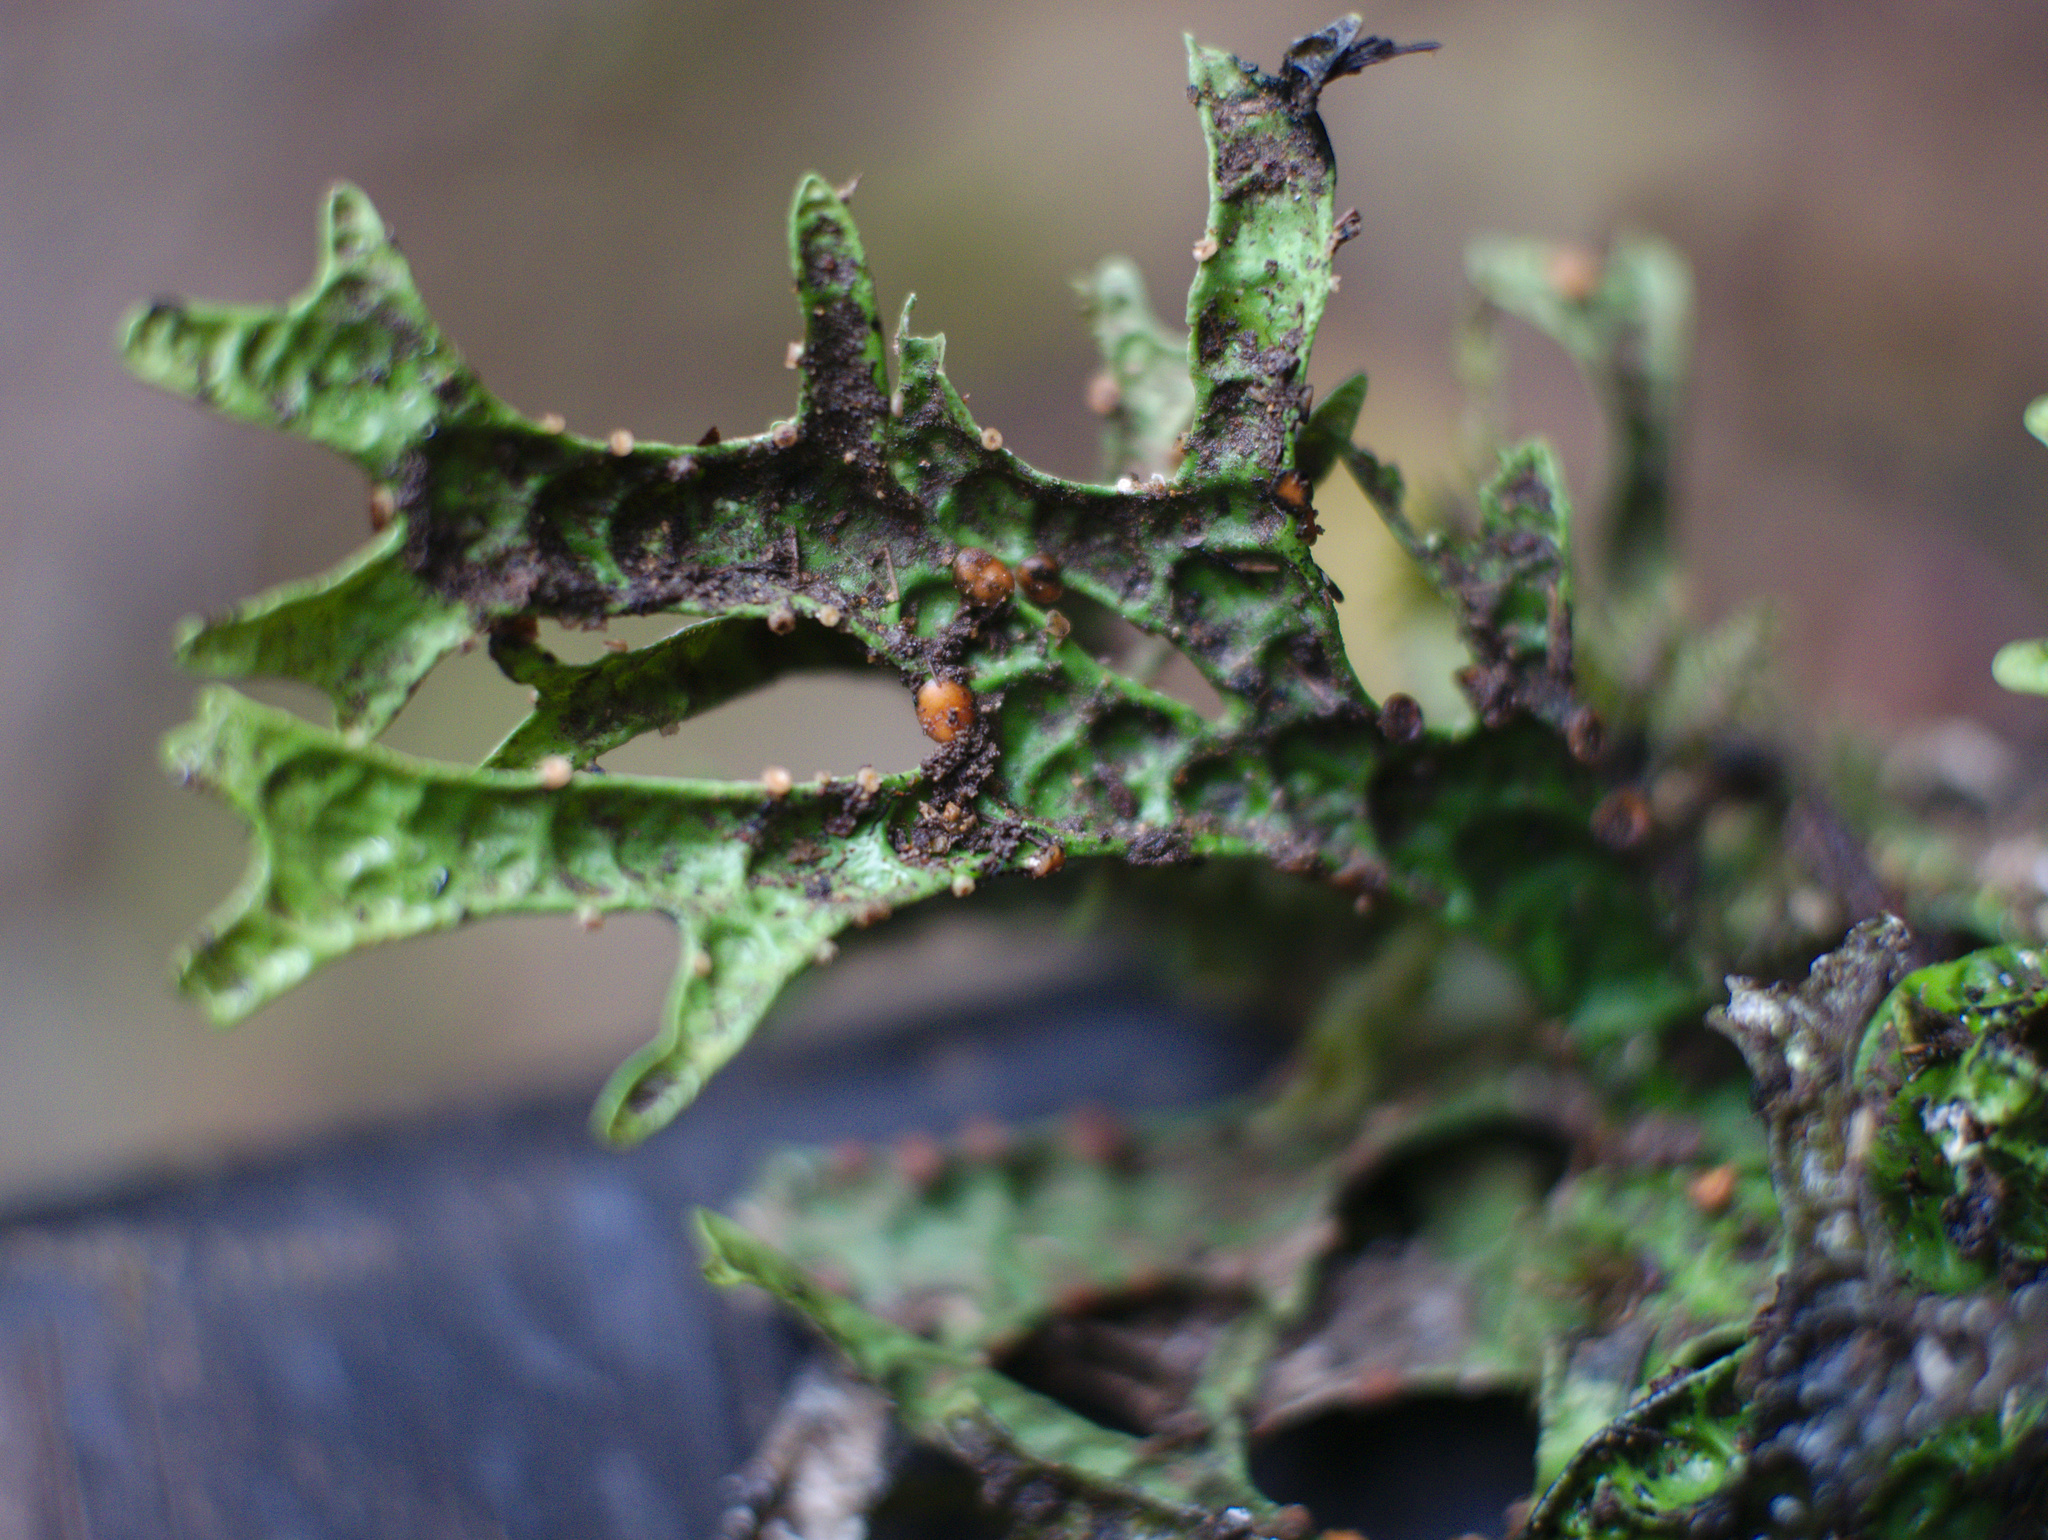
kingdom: Fungi
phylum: Ascomycota
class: Lecanoromycetes
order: Peltigerales
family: Lobariaceae
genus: Pseudocyphellaria
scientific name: Pseudocyphellaria rufovirescens
